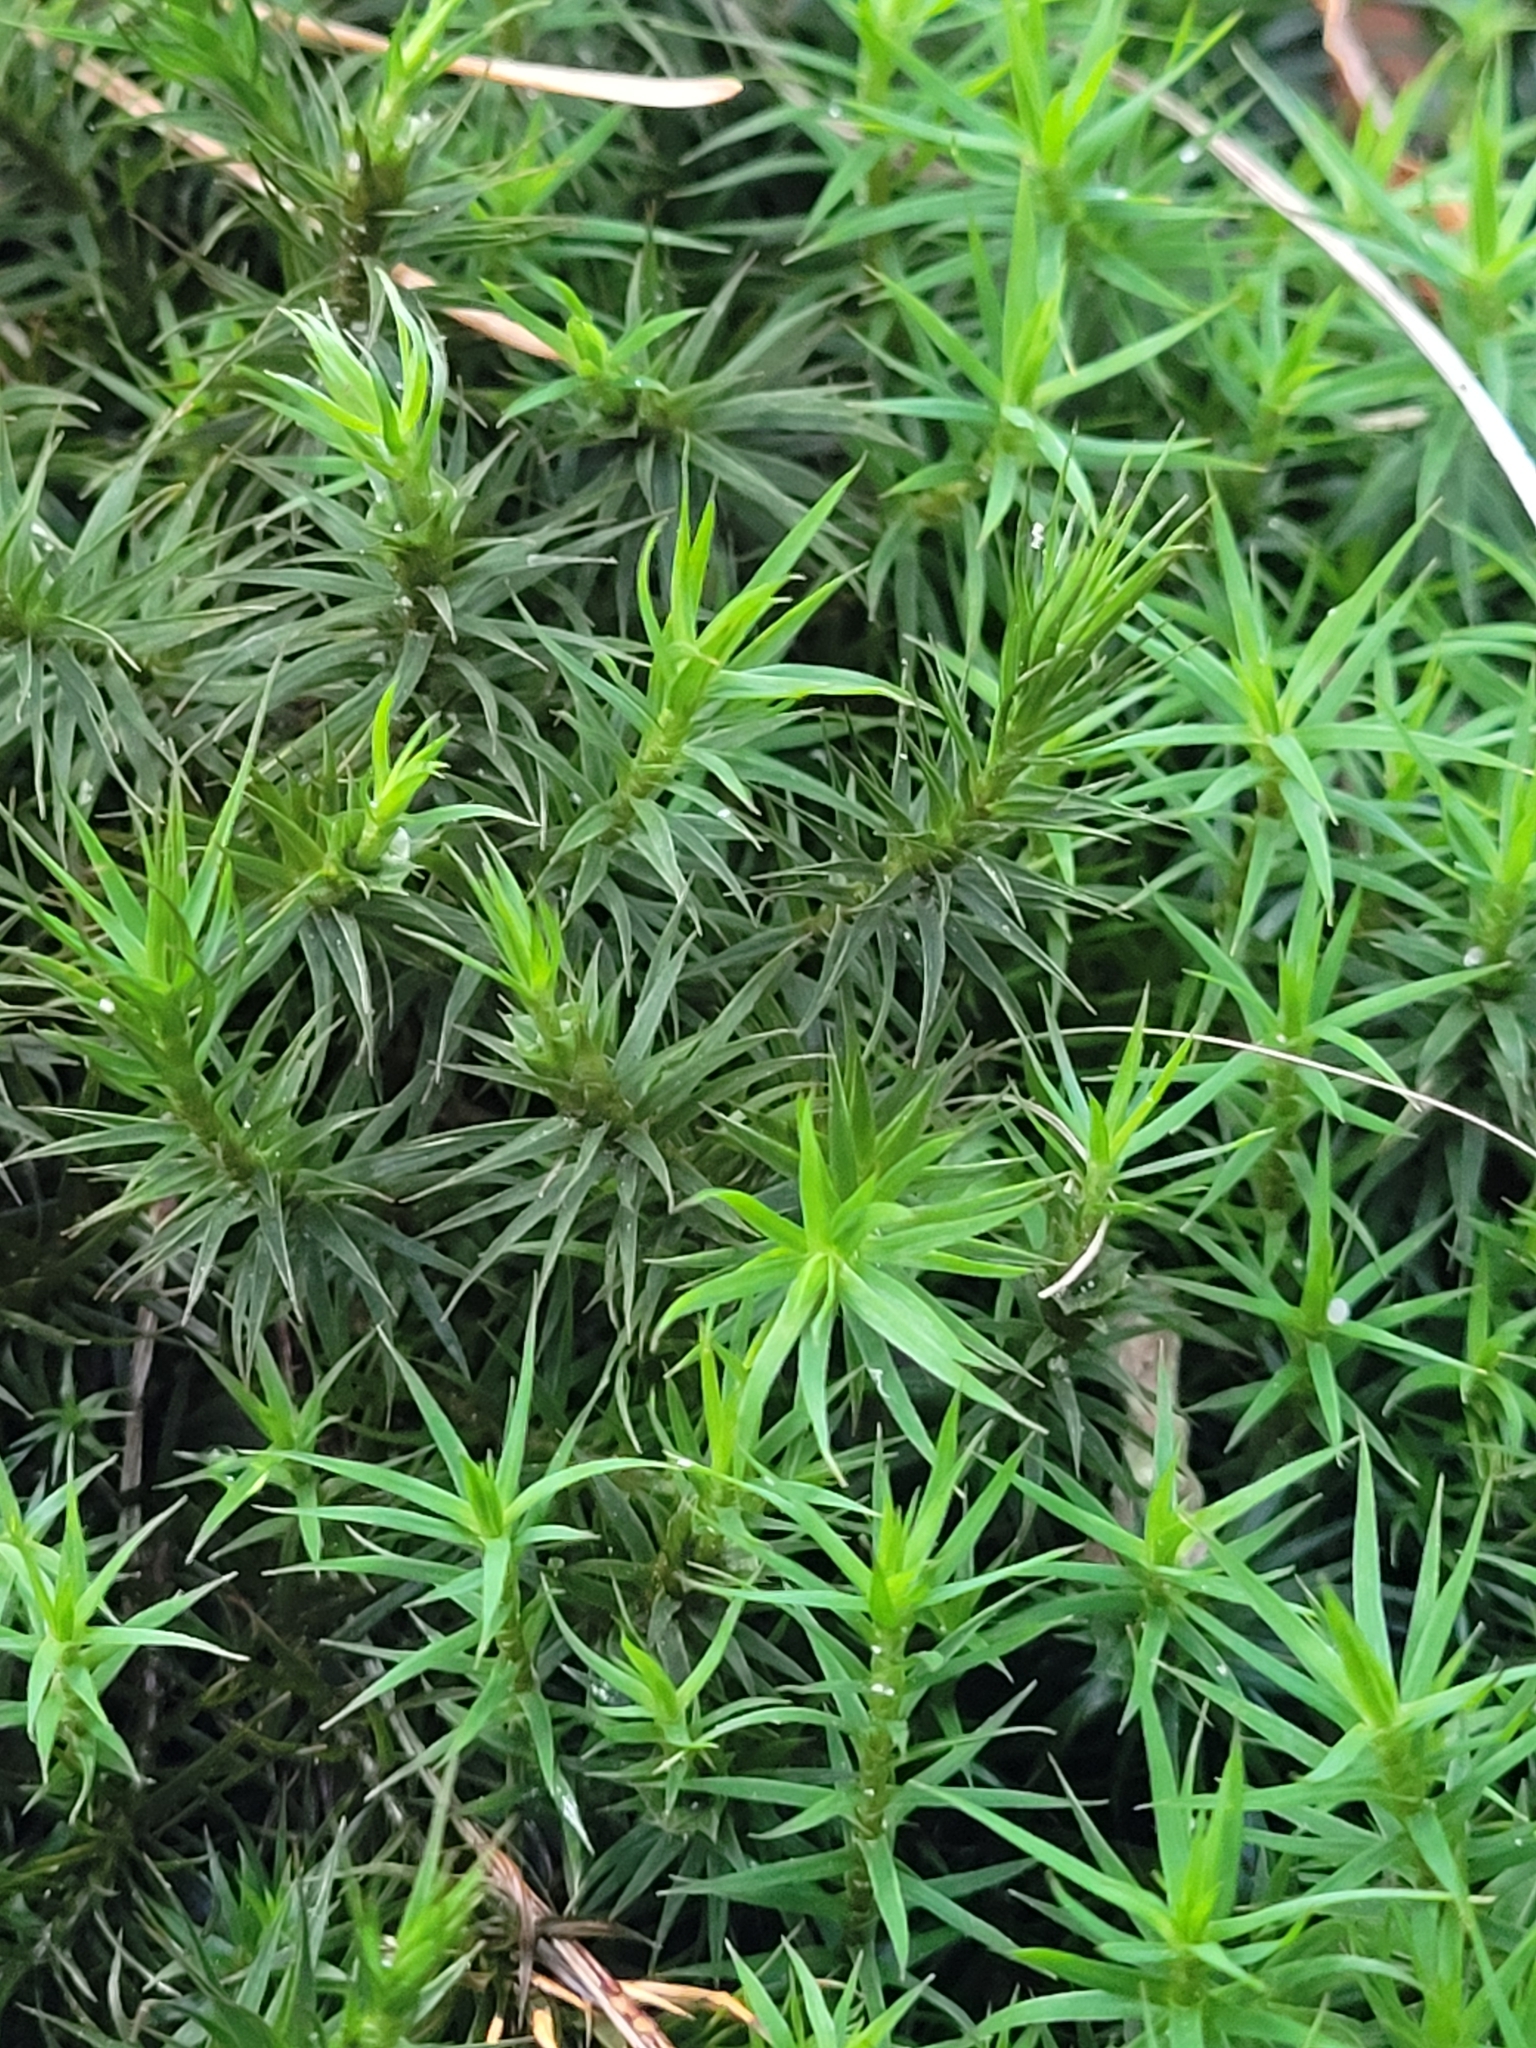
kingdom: Plantae
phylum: Bryophyta
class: Polytrichopsida
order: Polytrichales
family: Polytrichaceae
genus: Polytrichum
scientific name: Polytrichum formosum
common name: Bank haircap moss
